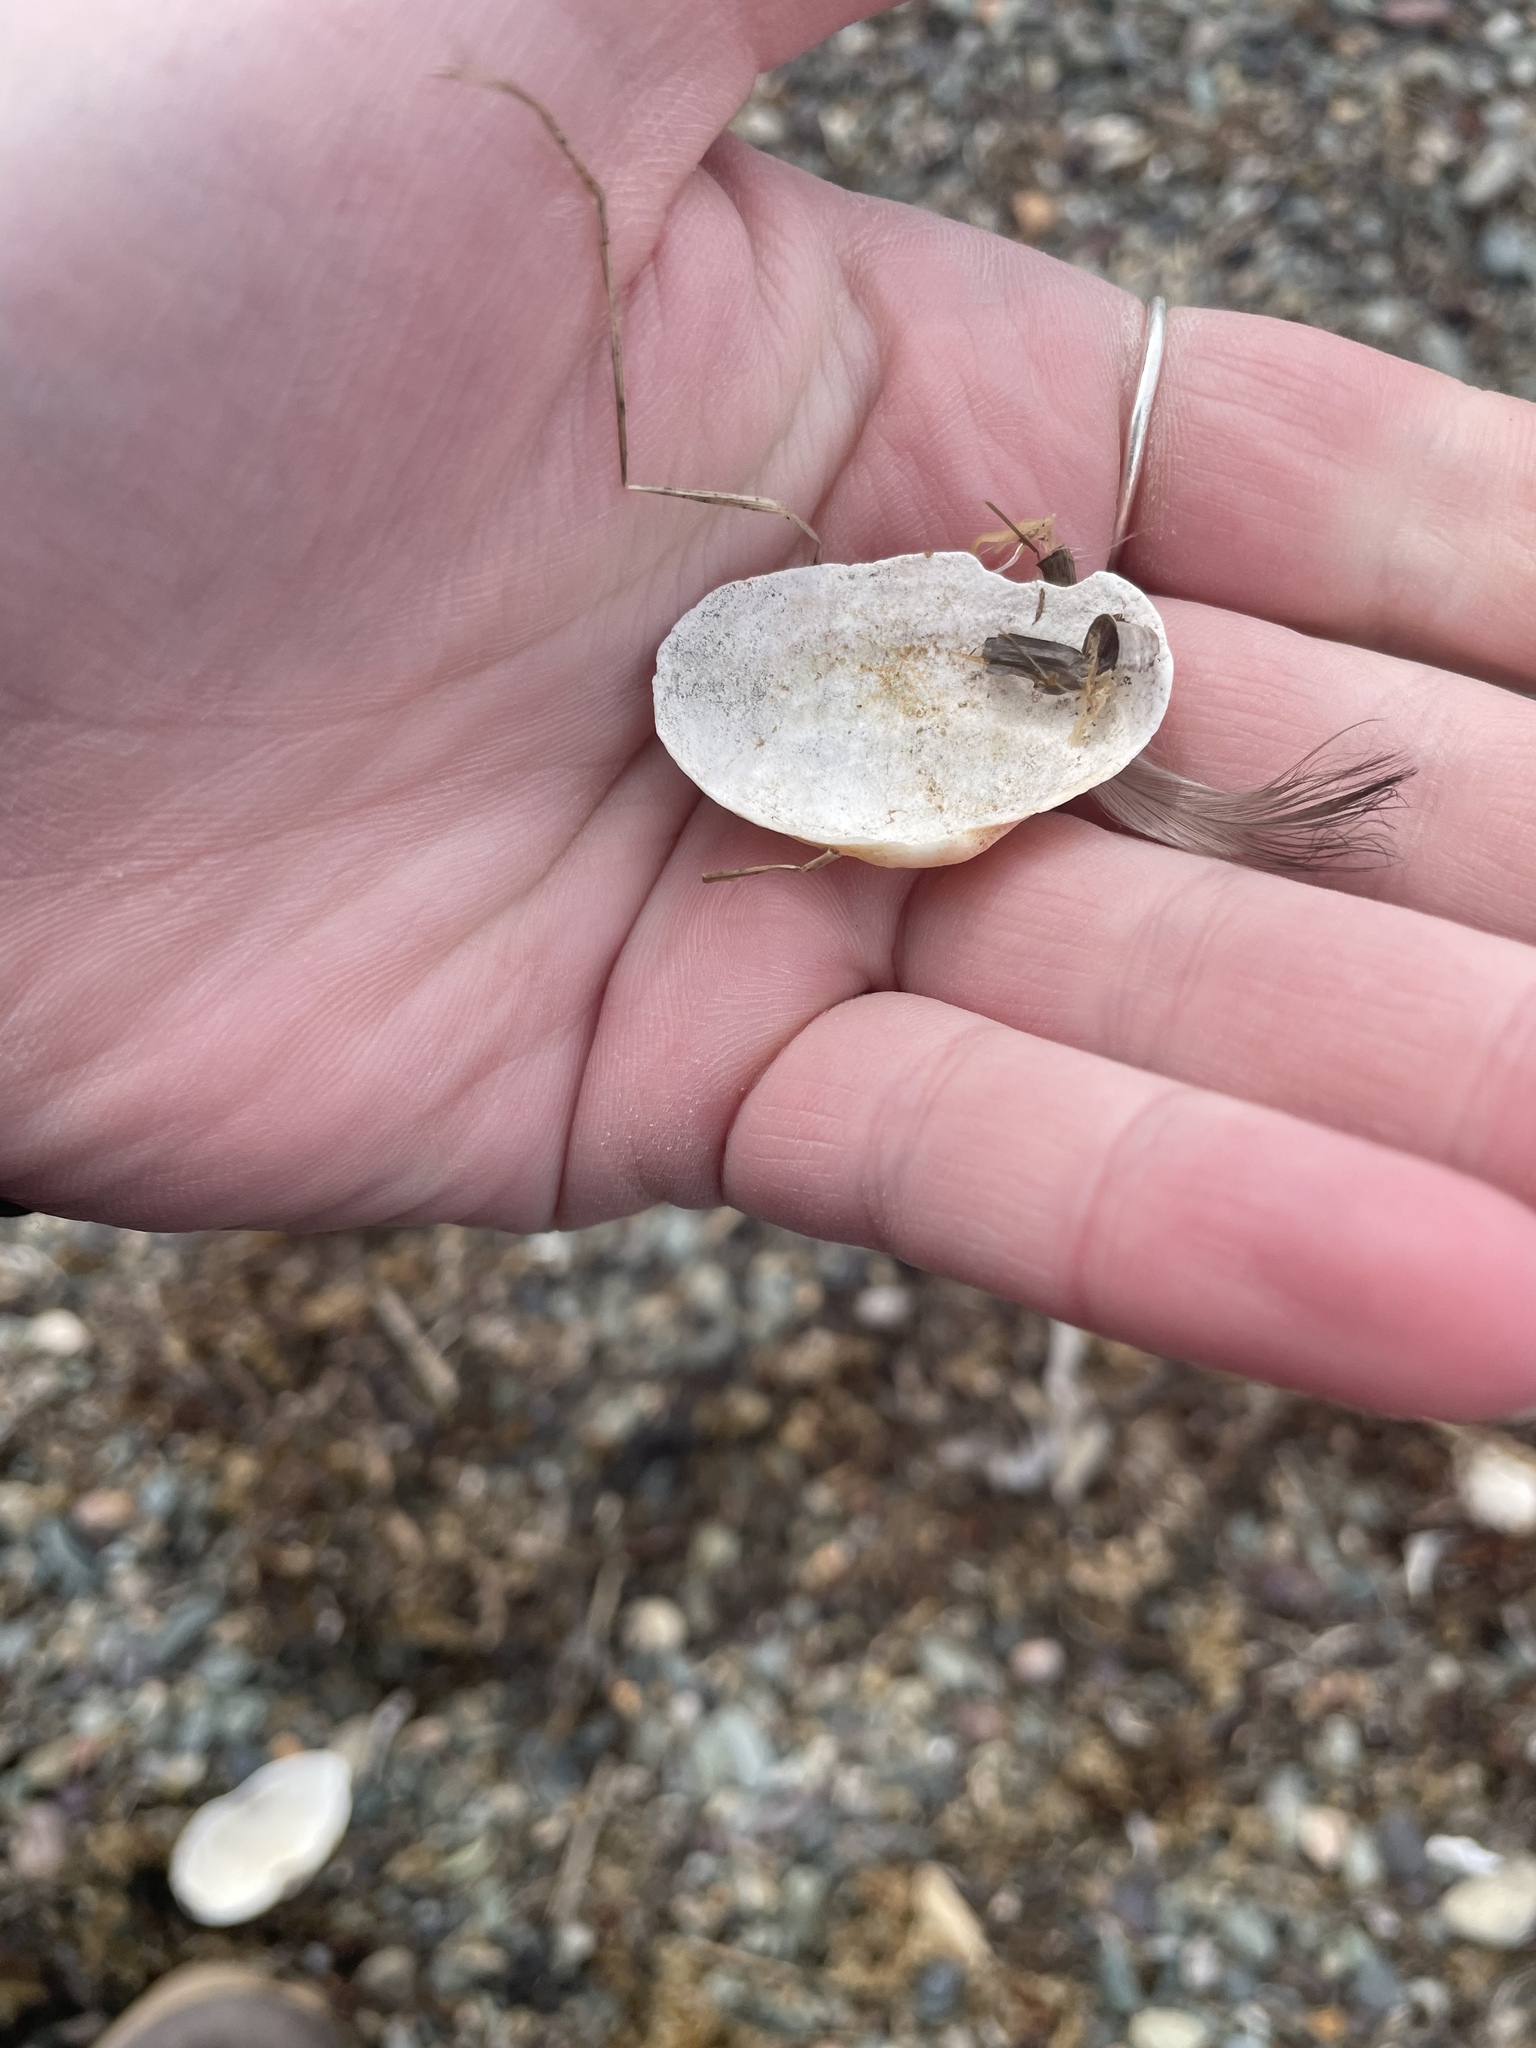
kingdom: Animalia
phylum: Mollusca
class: Bivalvia
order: Myida
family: Myidae
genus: Mya
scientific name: Mya arenaria
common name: Soft-shelled clam
